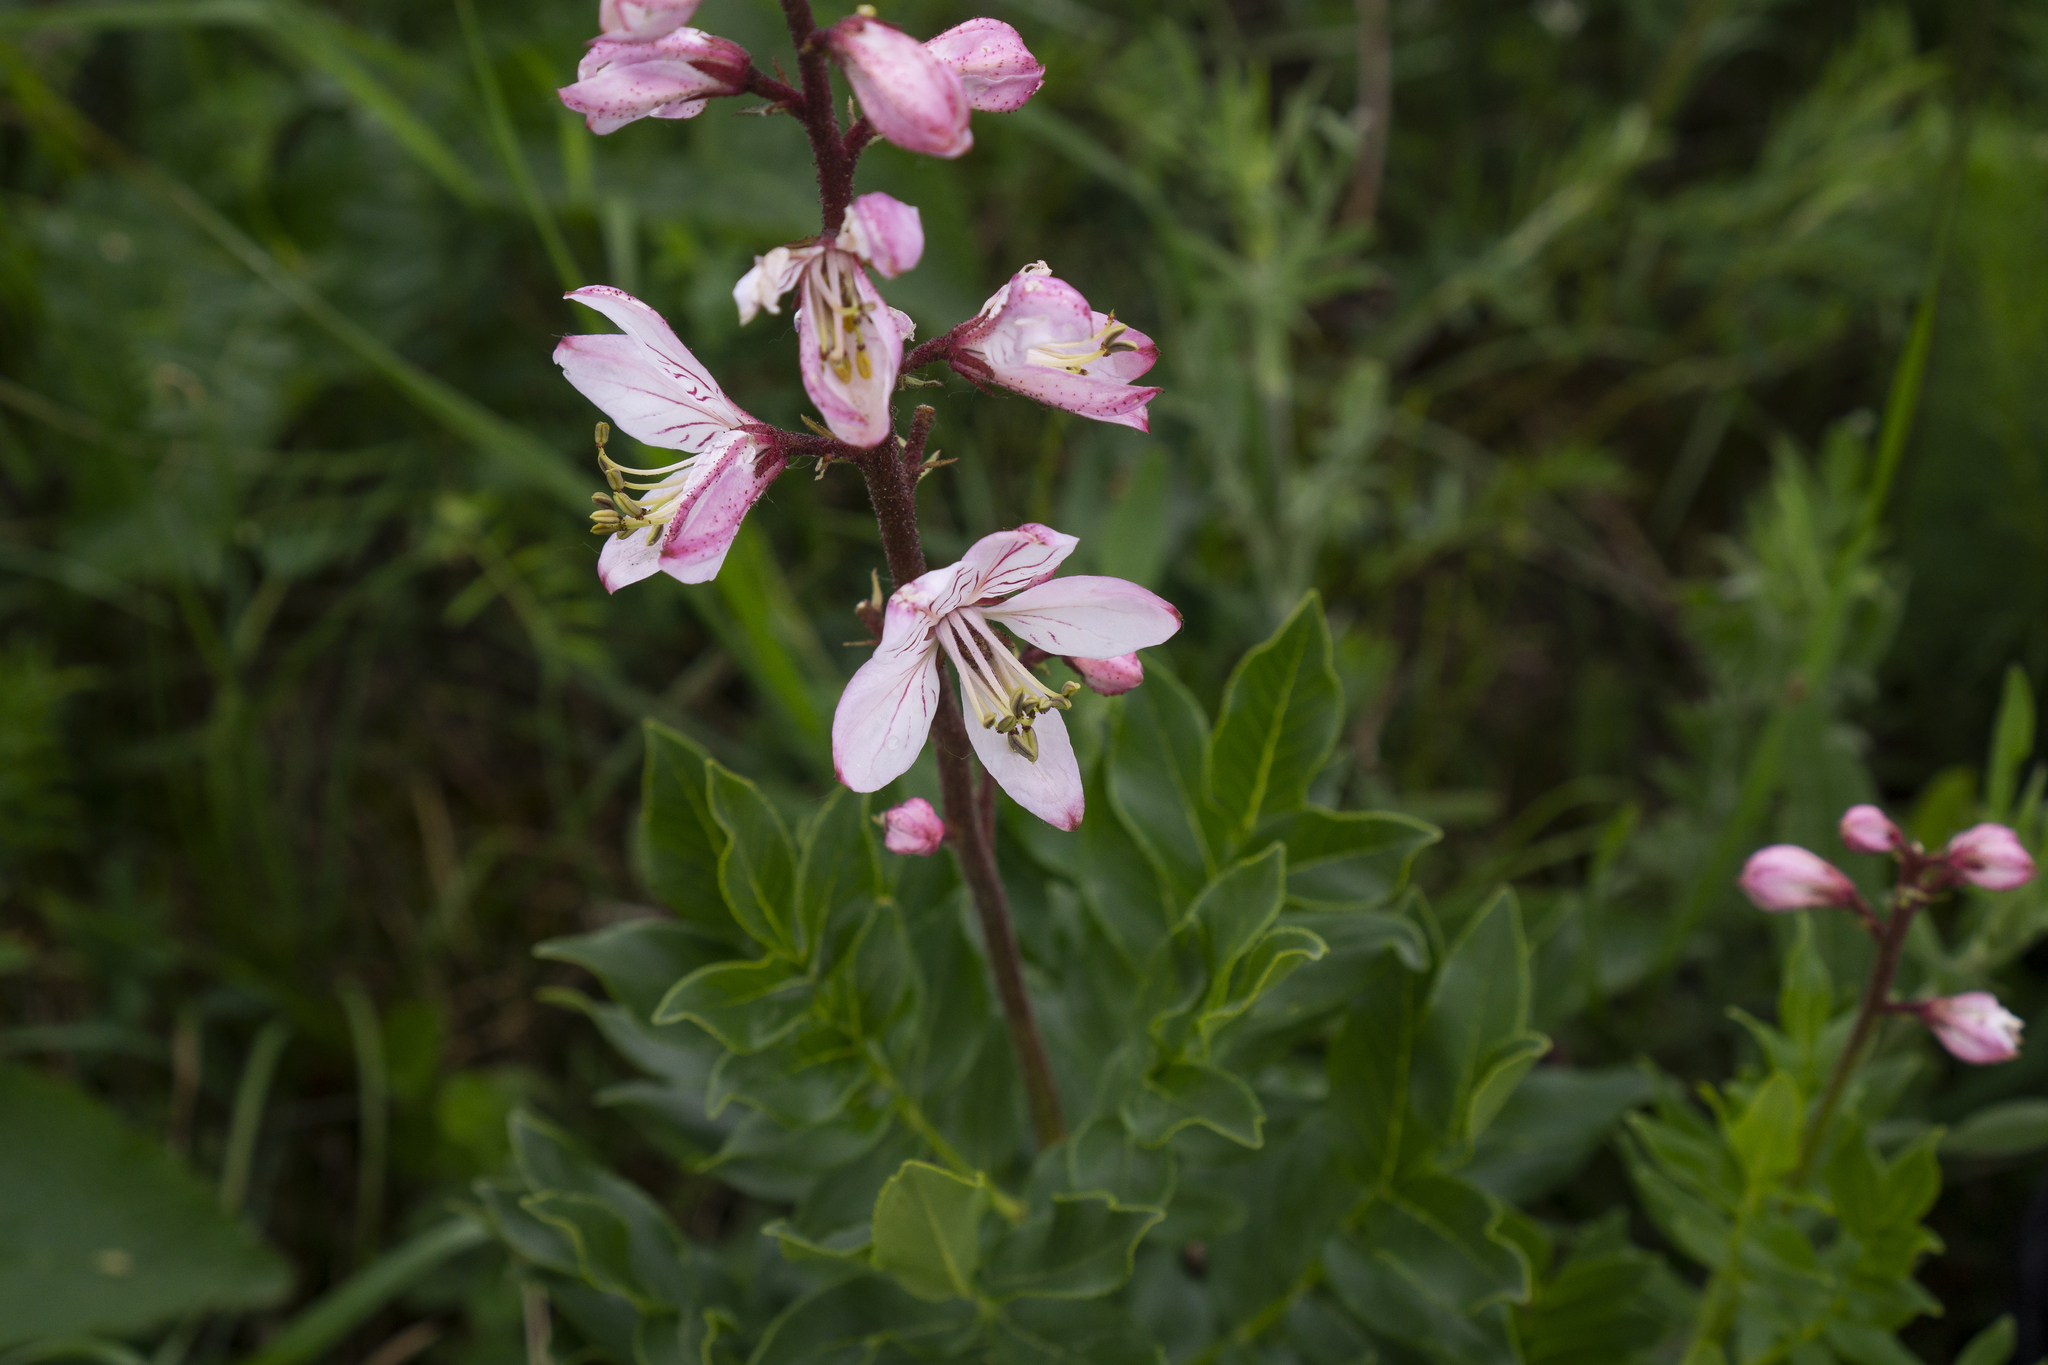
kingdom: Plantae
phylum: Tracheophyta
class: Magnoliopsida
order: Sapindales
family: Rutaceae
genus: Dictamnus
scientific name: Dictamnus albus
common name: Gasplant
